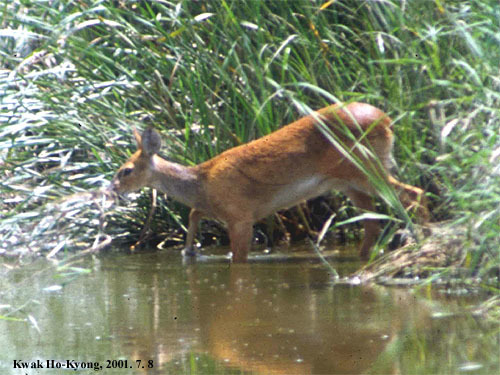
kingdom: Animalia
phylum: Chordata
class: Mammalia
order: Artiodactyla
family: Cervidae
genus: Hydropotes
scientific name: Hydropotes inermis
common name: Chinese water deer
